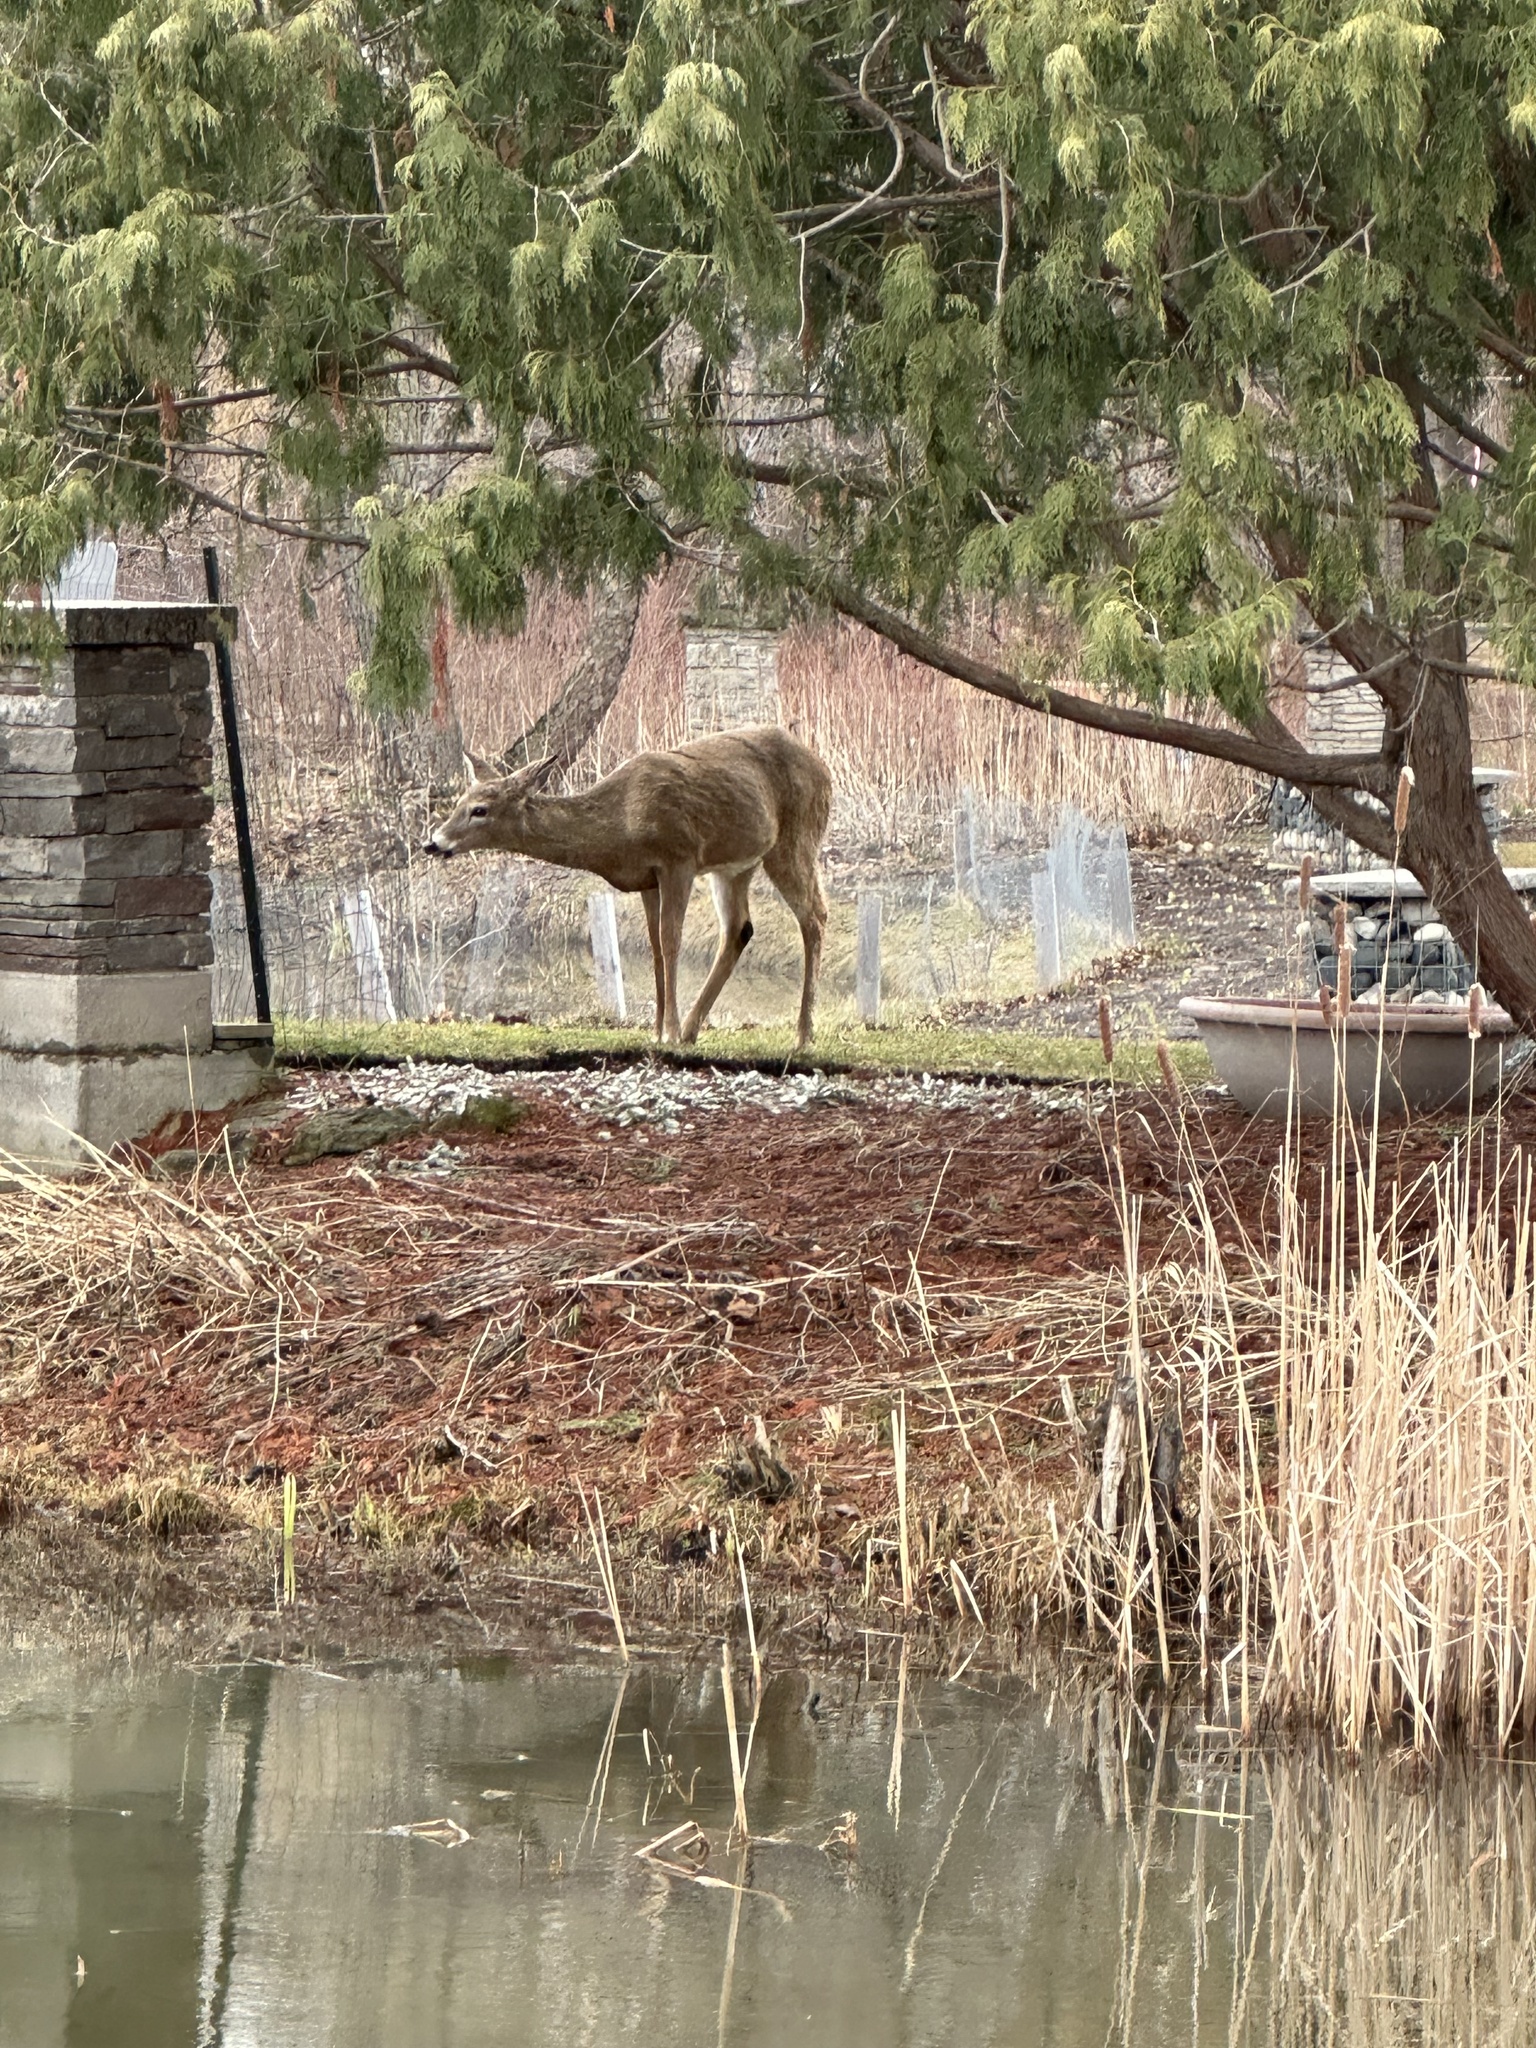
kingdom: Animalia
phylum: Chordata
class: Mammalia
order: Artiodactyla
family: Cervidae
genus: Odocoileus
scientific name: Odocoileus virginianus
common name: White-tailed deer
